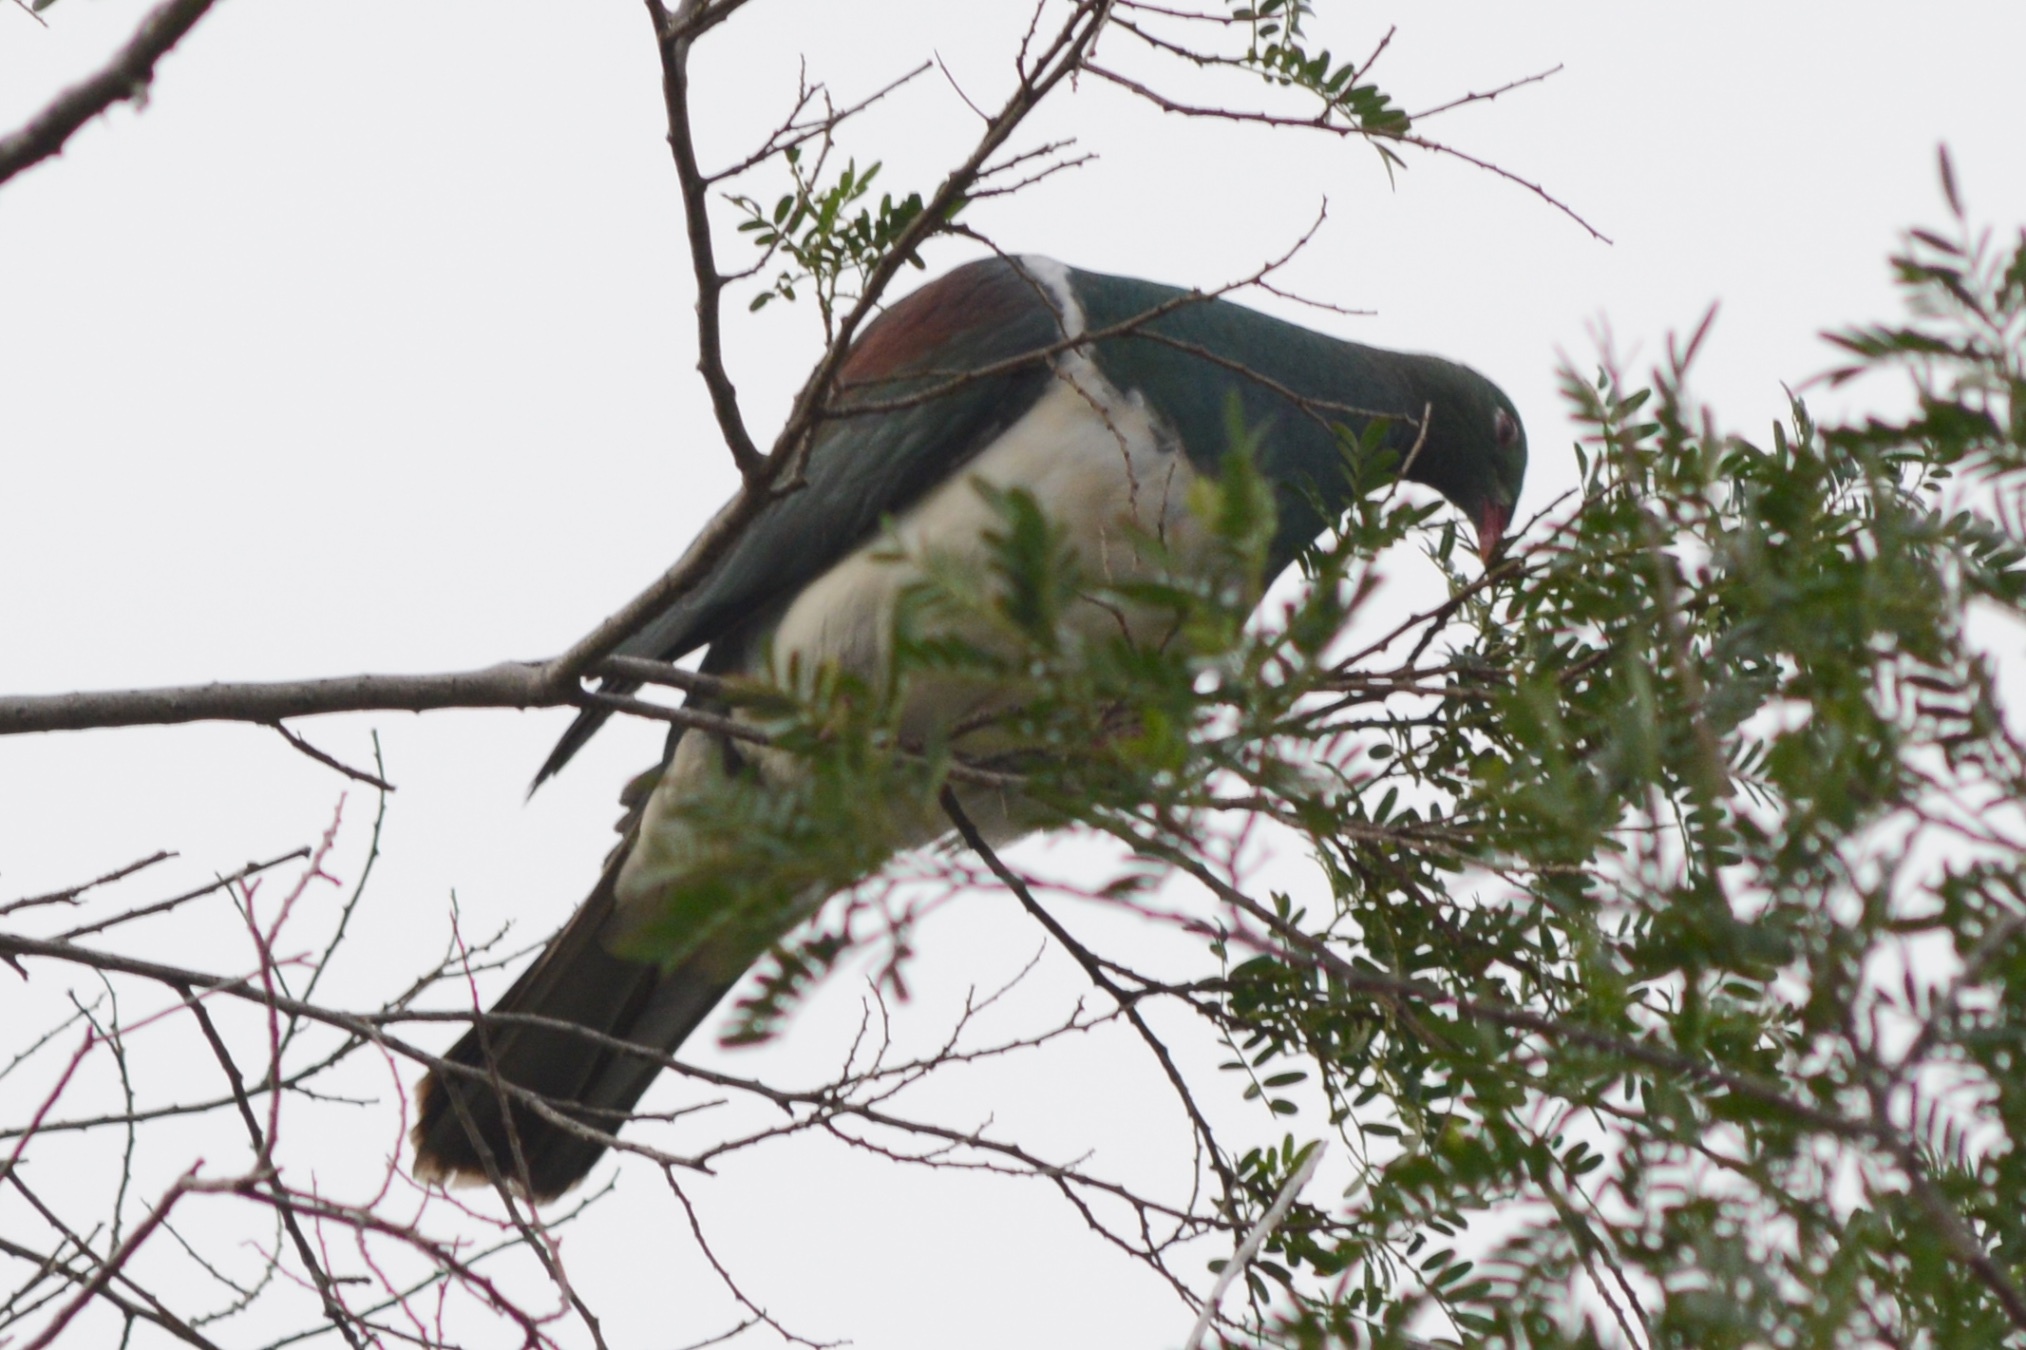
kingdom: Animalia
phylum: Chordata
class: Aves
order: Columbiformes
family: Columbidae
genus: Hemiphaga
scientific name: Hemiphaga novaeseelandiae
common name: New zealand pigeon
